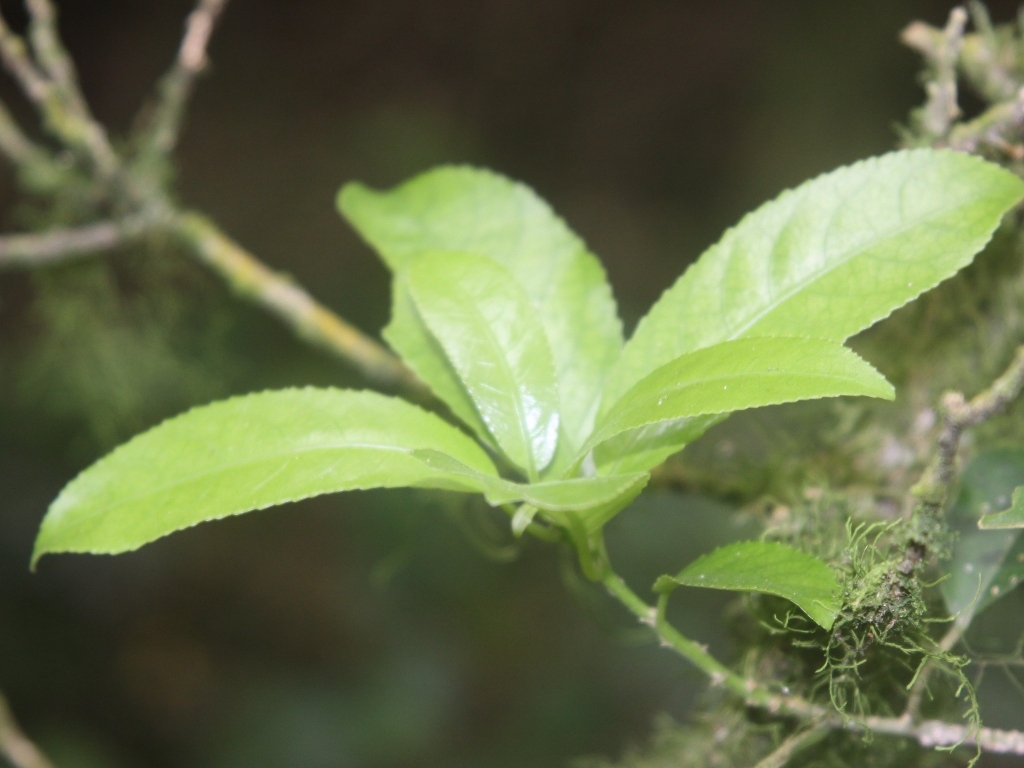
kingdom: Plantae
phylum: Tracheophyta
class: Magnoliopsida
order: Malpighiales
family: Violaceae
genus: Melicytus
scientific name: Melicytus ramiflorus
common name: Mahoe
